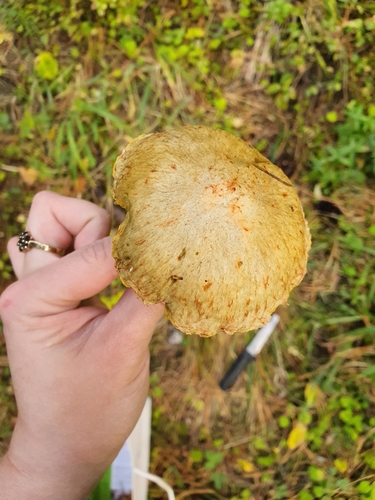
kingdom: Fungi
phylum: Basidiomycota
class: Agaricomycetes
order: Boletales
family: Suillaceae
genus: Suillus
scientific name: Suillus americanus
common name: Chicken fat mushroom
